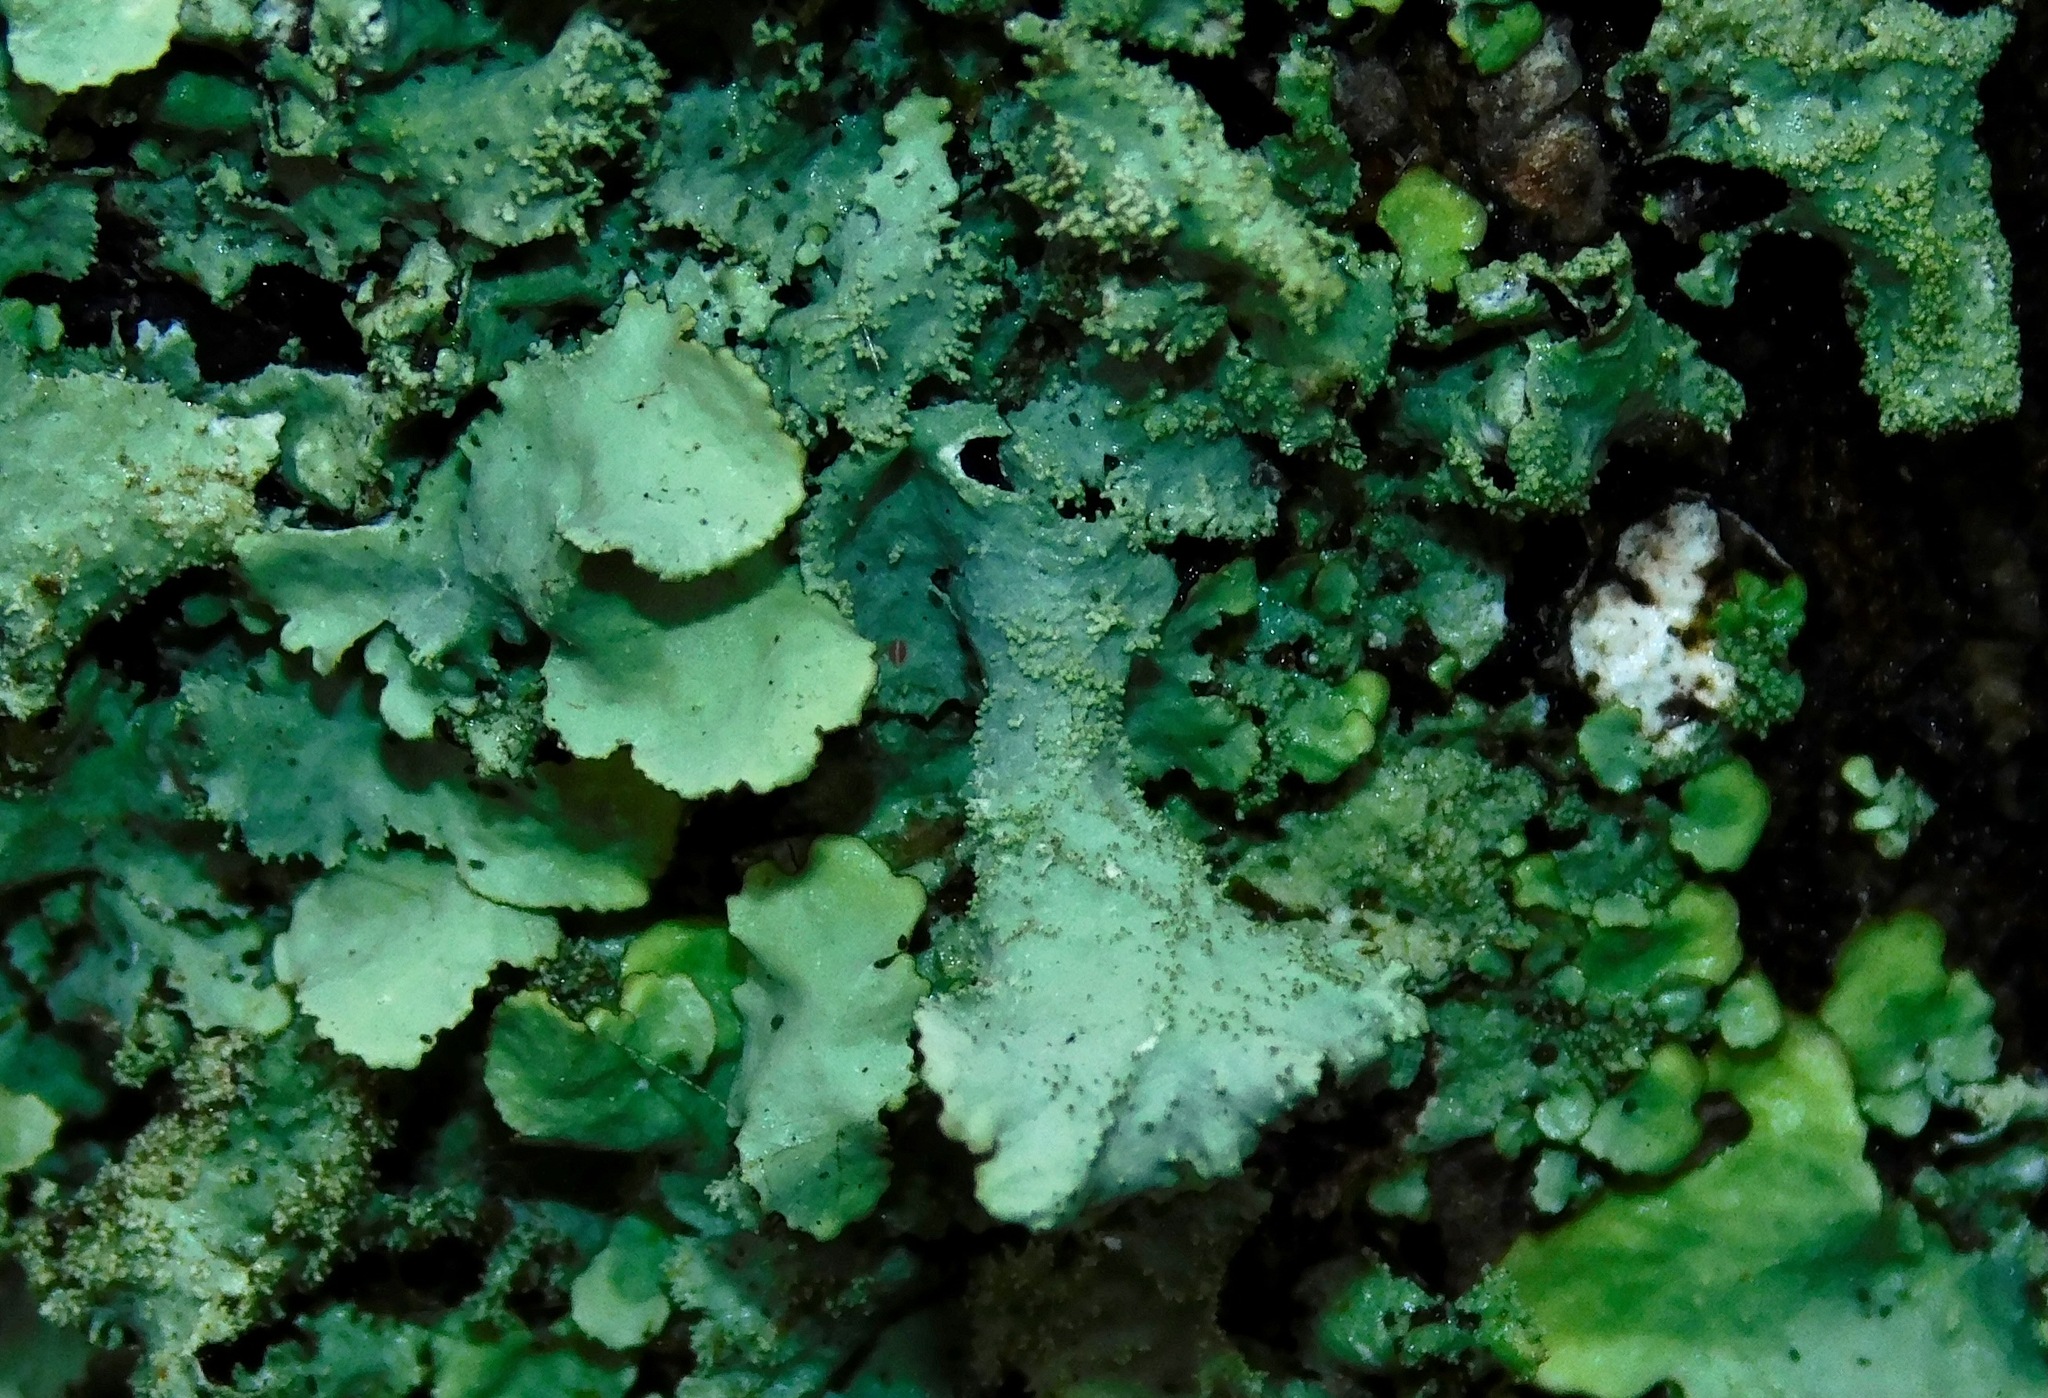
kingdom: Fungi
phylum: Ascomycota
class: Lecanoromycetes
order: Lecanorales
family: Parmeliaceae
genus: Hypotrachyna
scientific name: Hypotrachyna minarum
